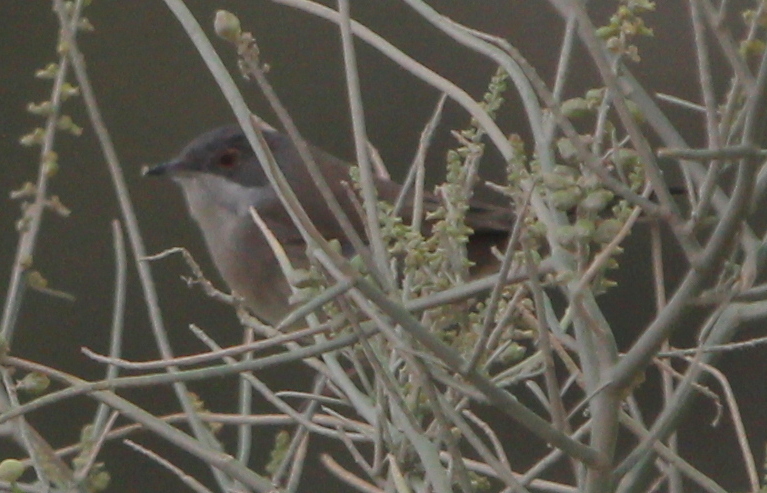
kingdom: Animalia
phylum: Chordata
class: Aves
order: Passeriformes
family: Sylviidae
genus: Curruca
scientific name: Curruca melanocephala
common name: Sardinian warbler
